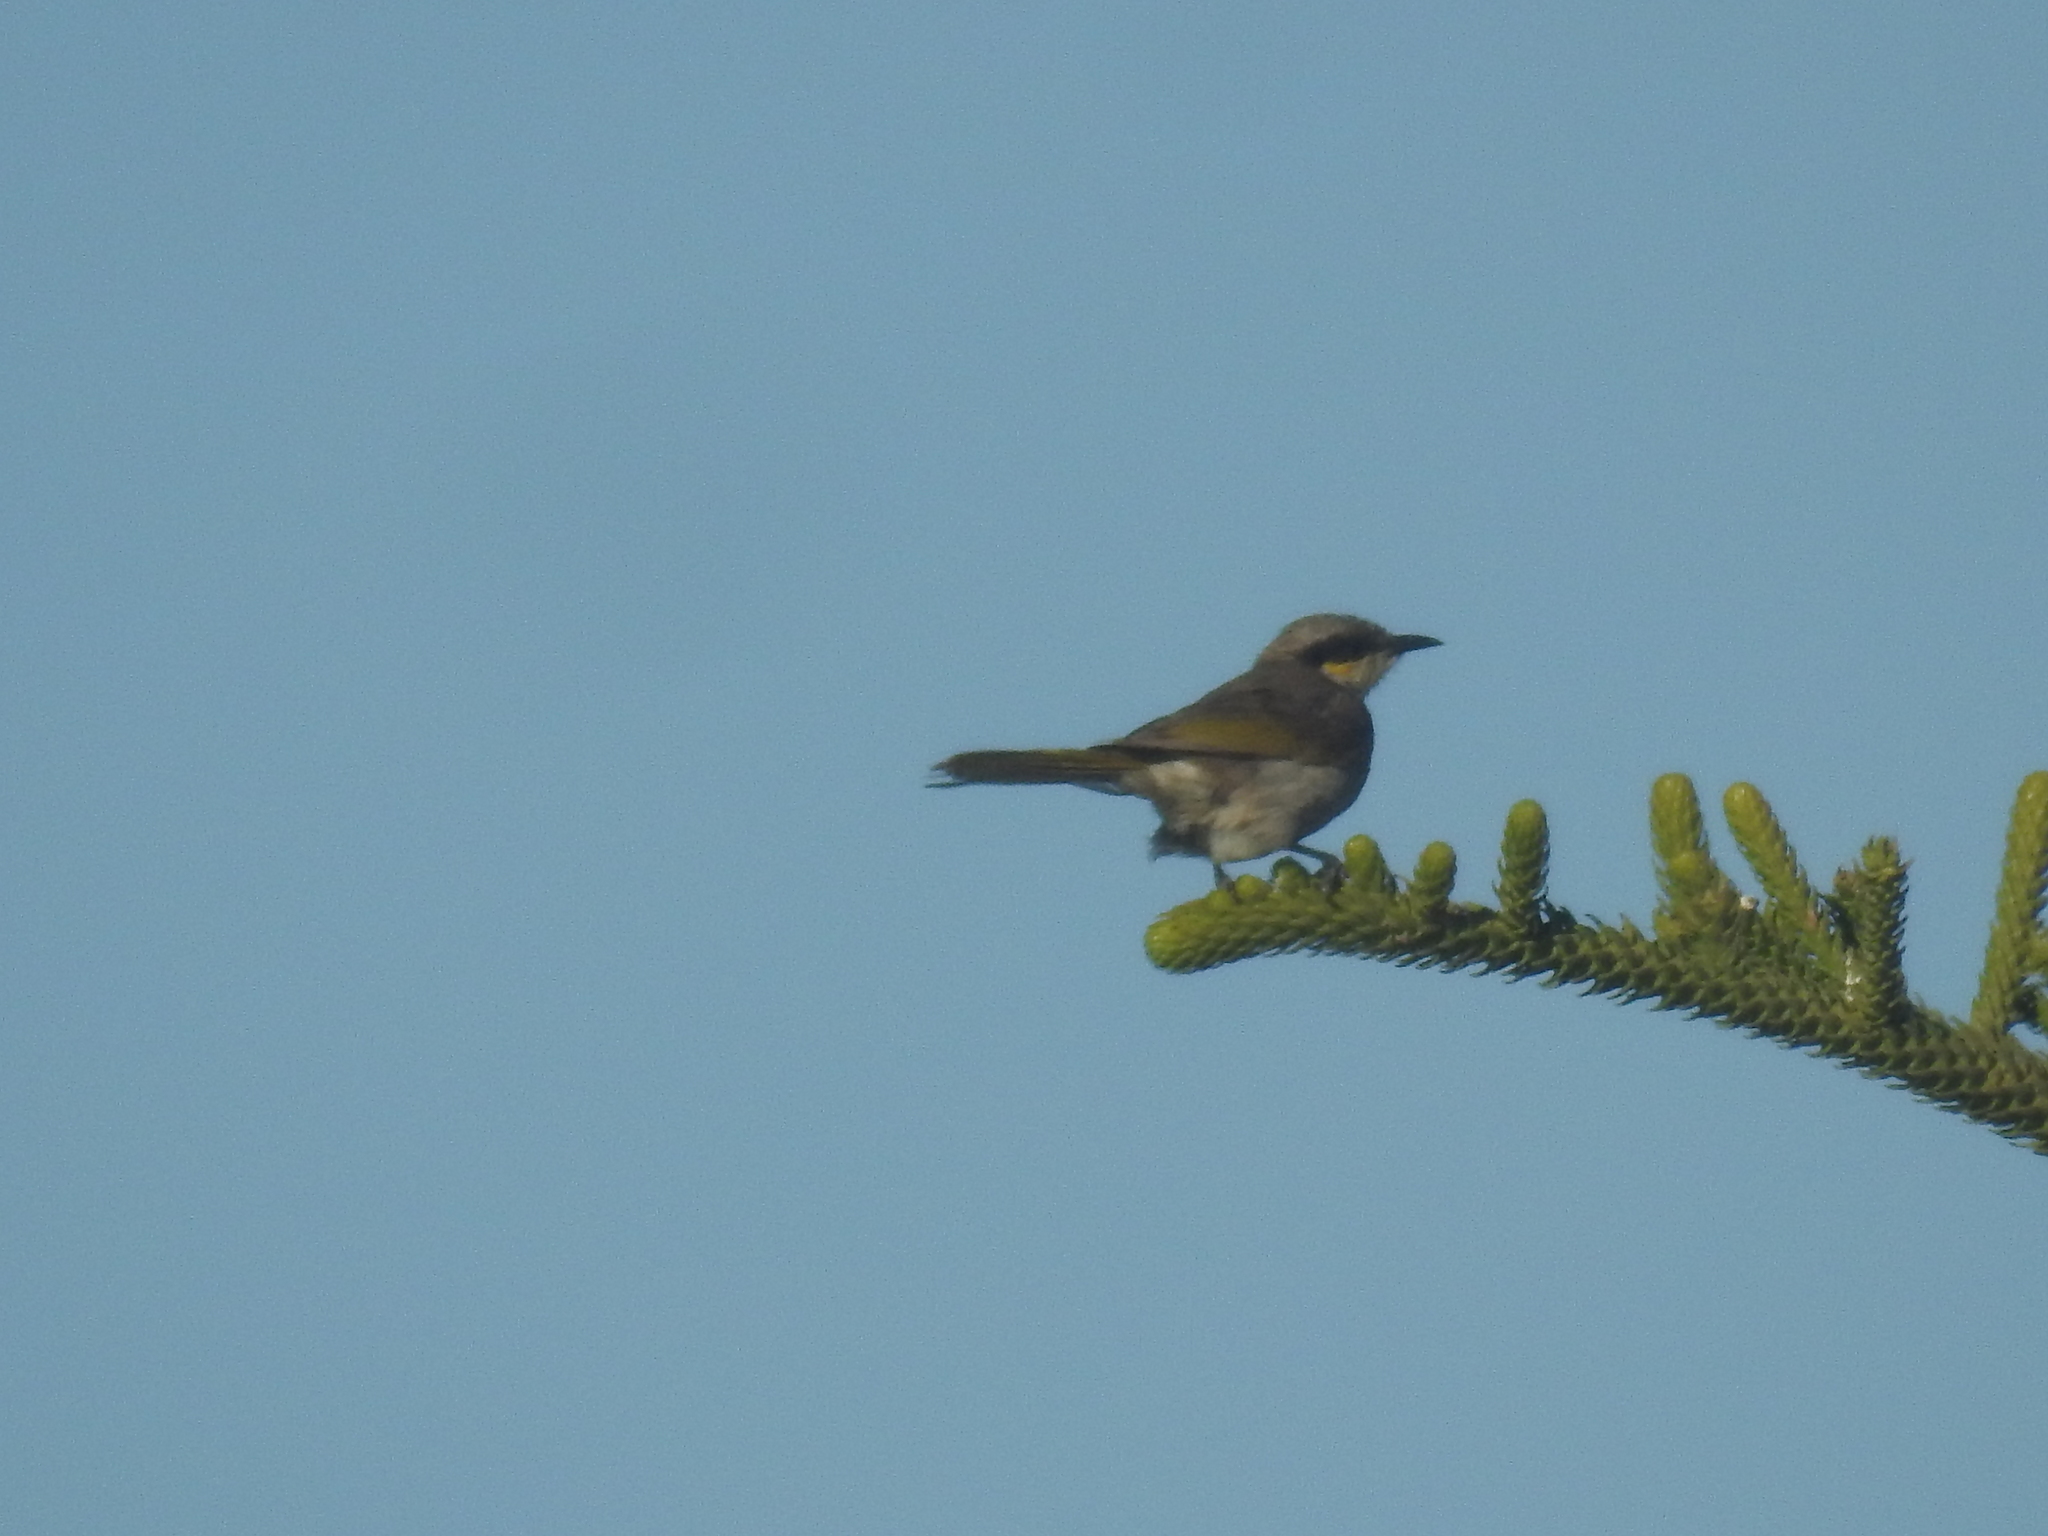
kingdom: Animalia
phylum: Chordata
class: Aves
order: Passeriformes
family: Meliphagidae
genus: Gavicalis
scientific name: Gavicalis virescens
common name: Singing honeyeater
